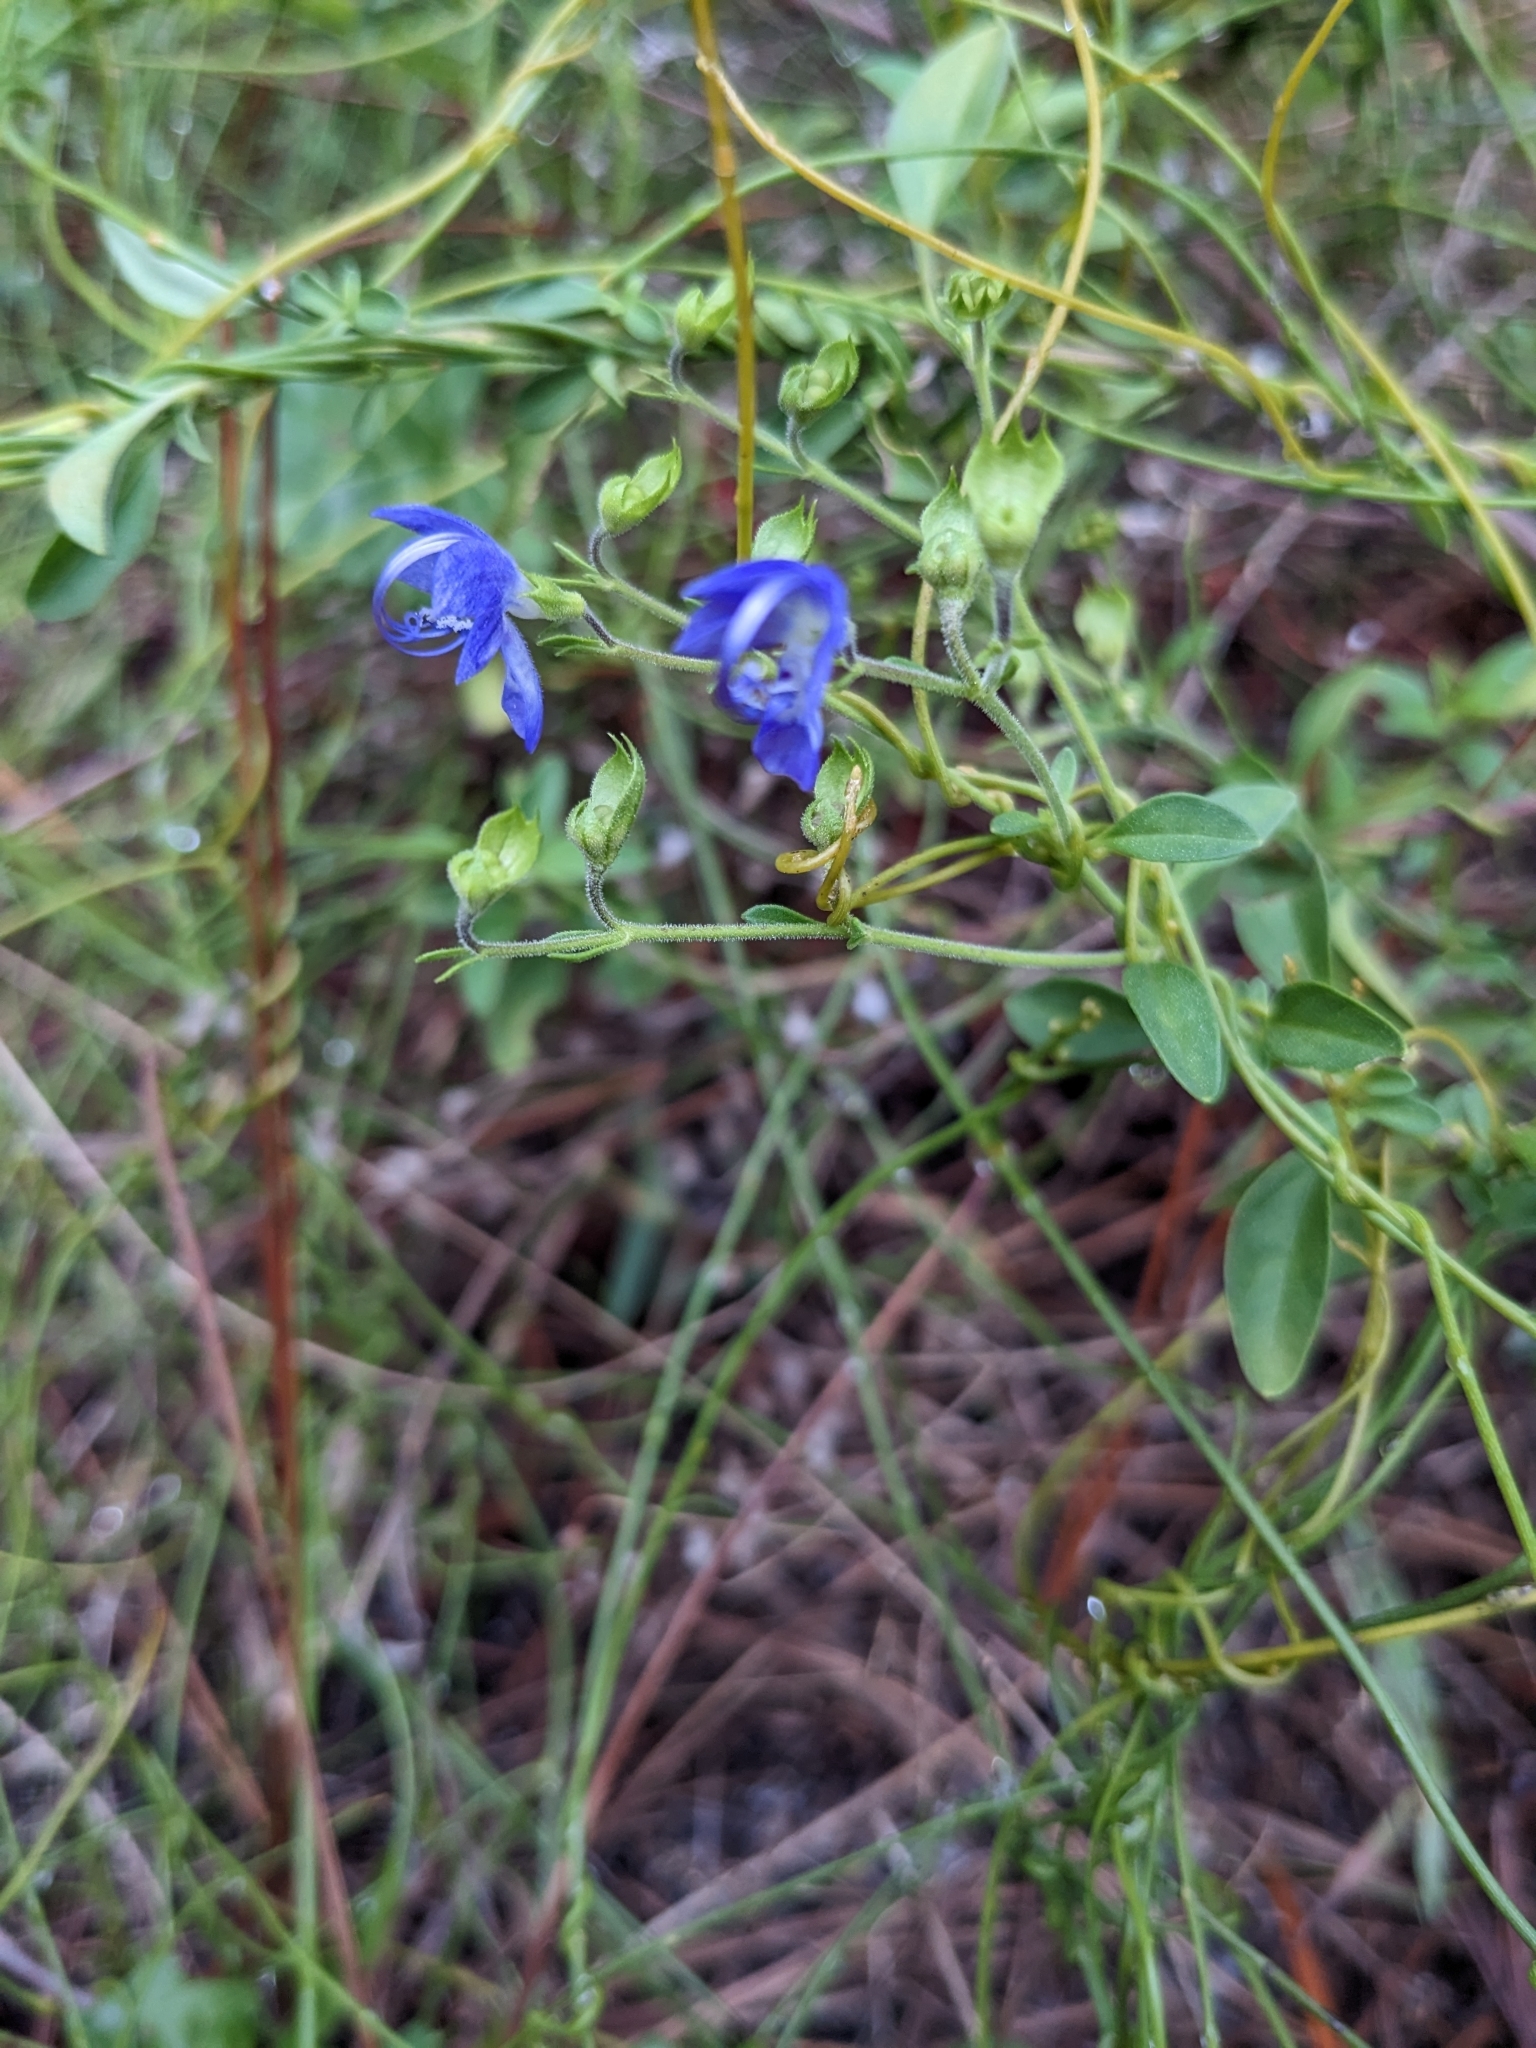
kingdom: Plantae
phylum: Tracheophyta
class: Magnoliopsida
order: Lamiales
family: Lamiaceae
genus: Trichostema
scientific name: Trichostema
